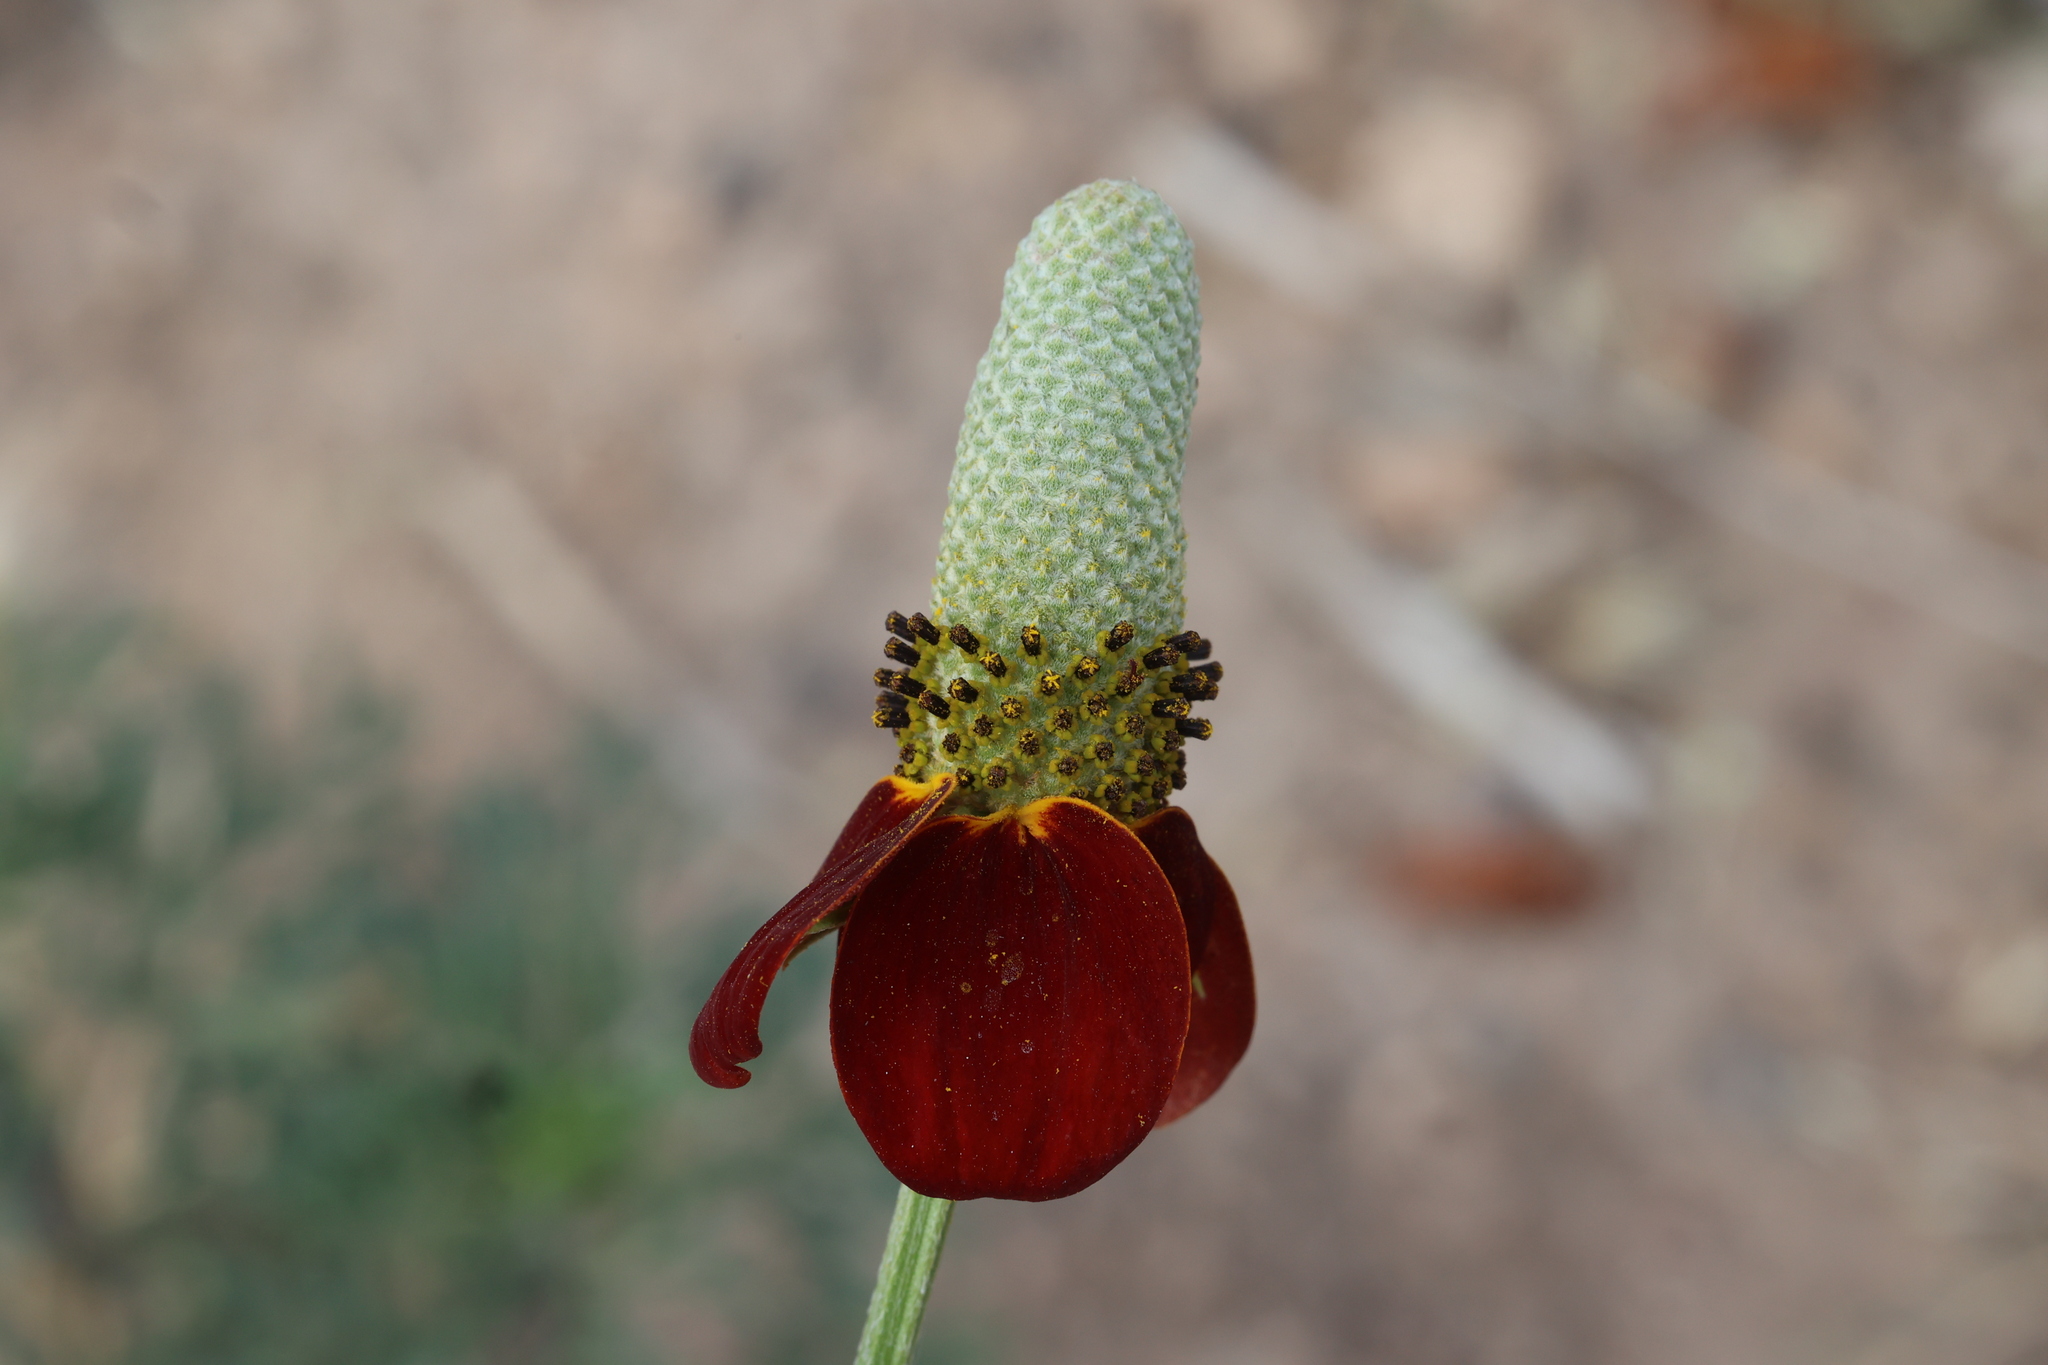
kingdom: Plantae
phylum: Tracheophyta
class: Magnoliopsida
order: Asterales
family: Asteraceae
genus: Ratibida
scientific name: Ratibida columnifera
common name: Prairie coneflower
